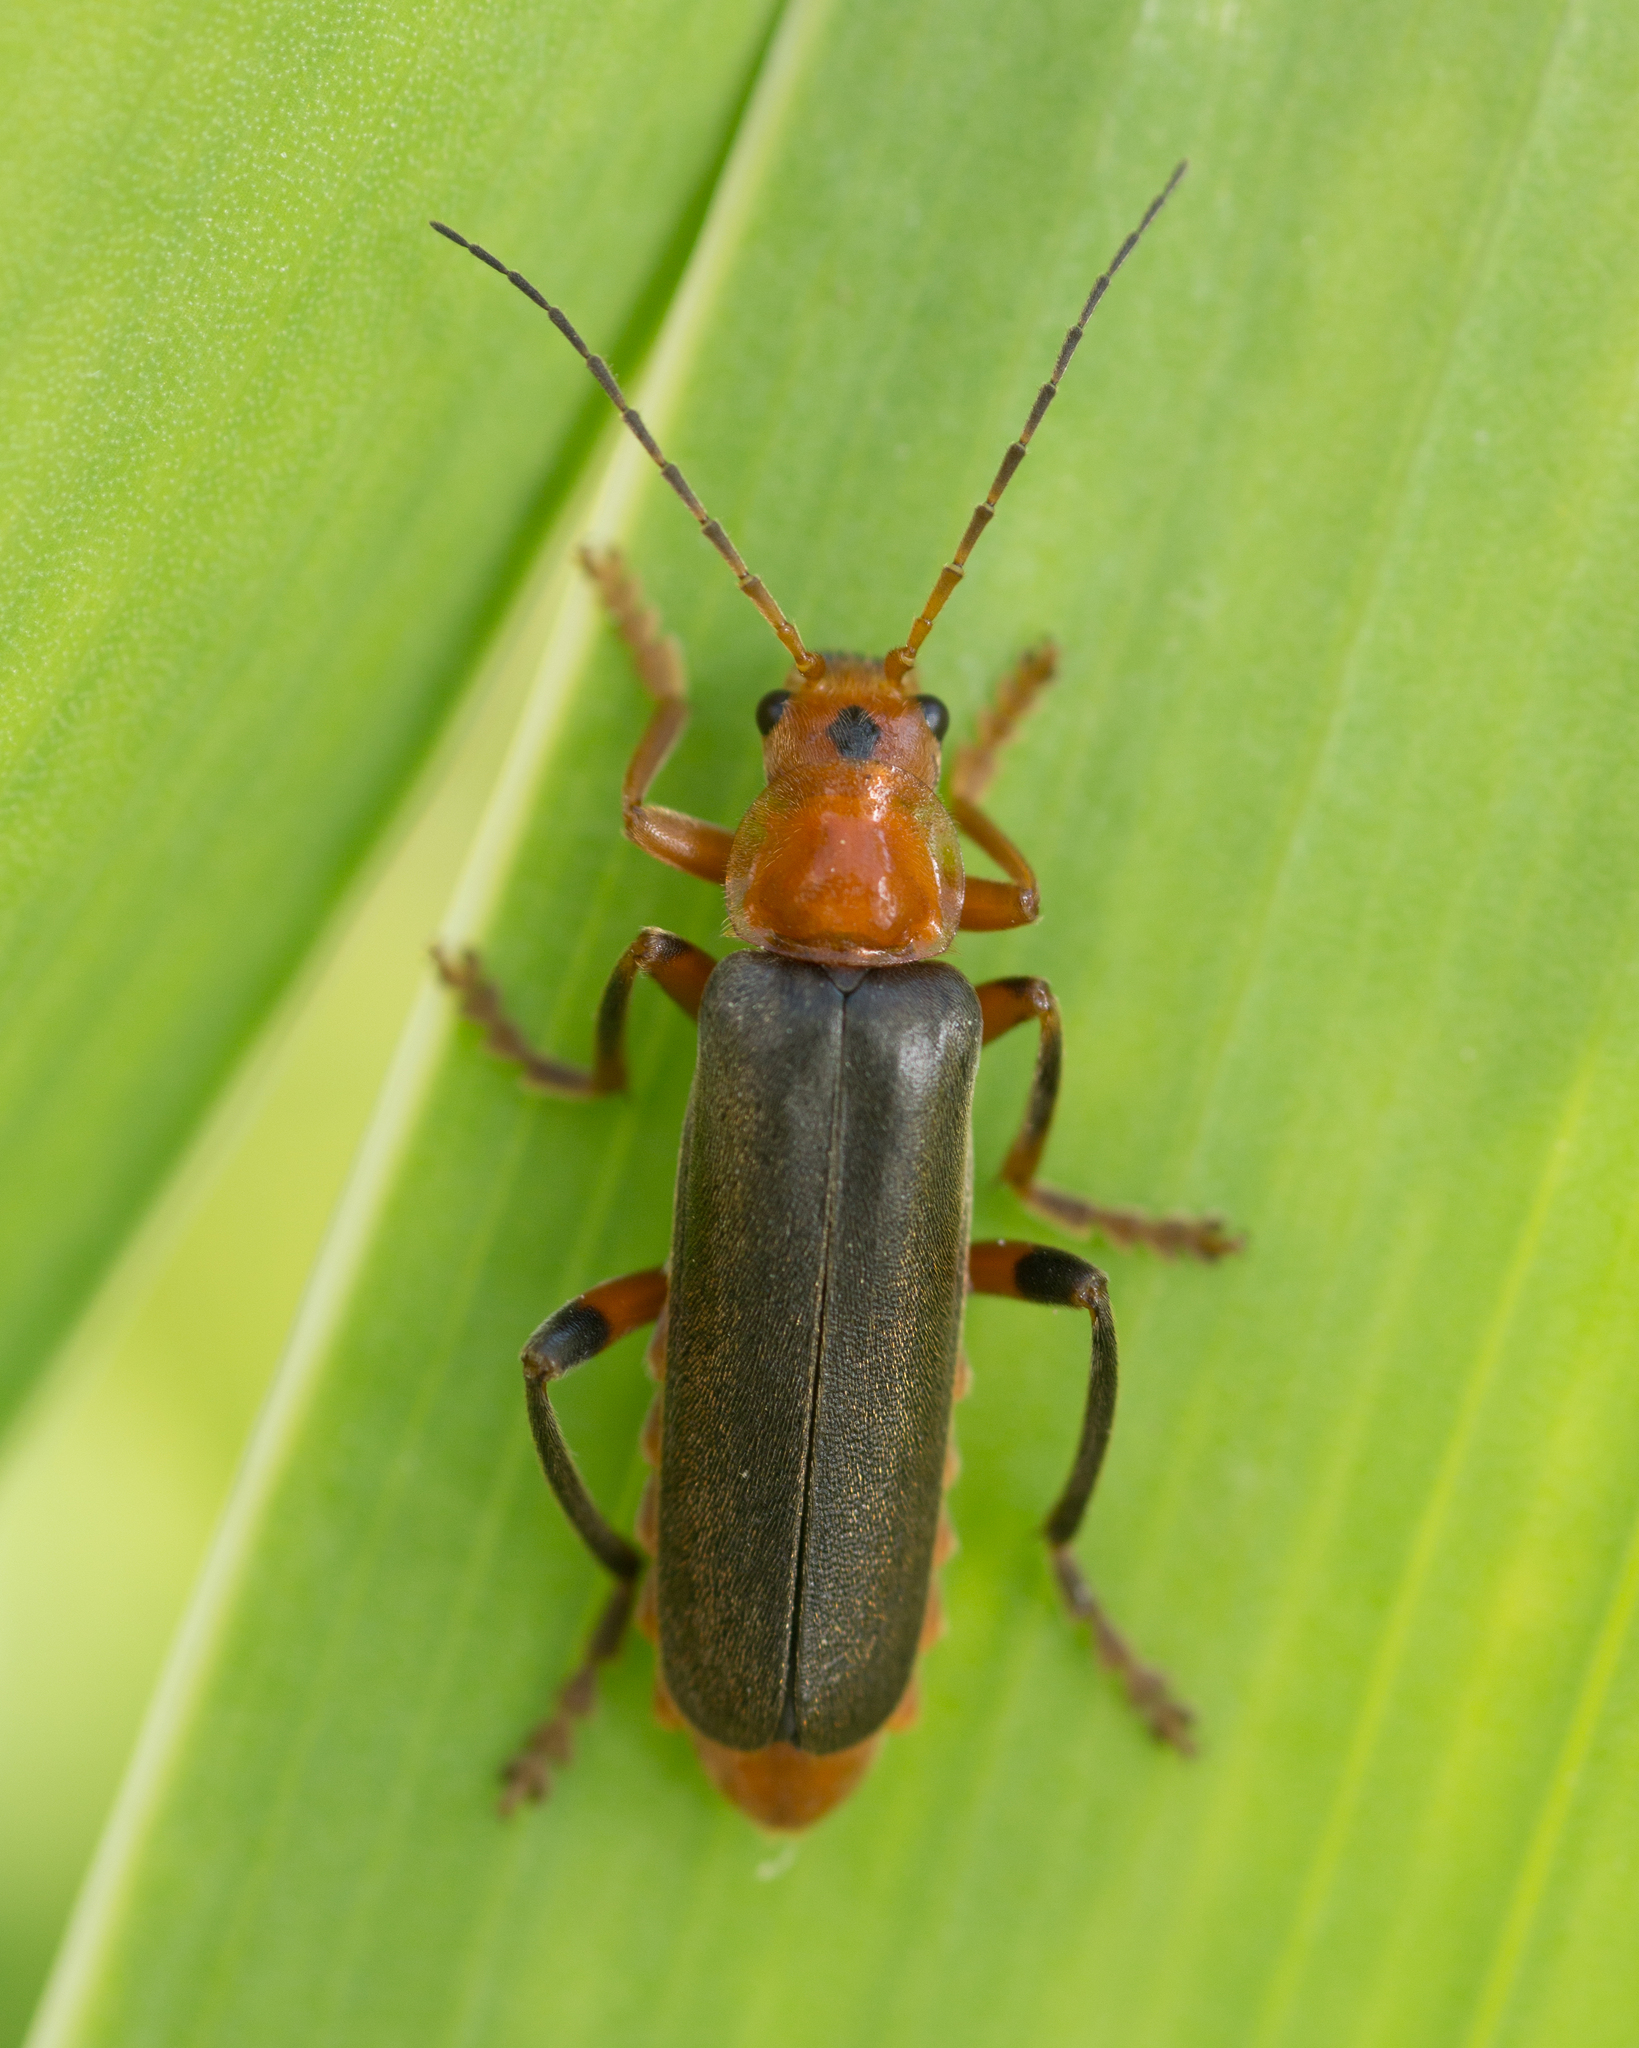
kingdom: Animalia
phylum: Arthropoda
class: Insecta
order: Coleoptera
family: Cantharidae
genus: Cantharis
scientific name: Cantharis livida
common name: Livid soldier beetle
